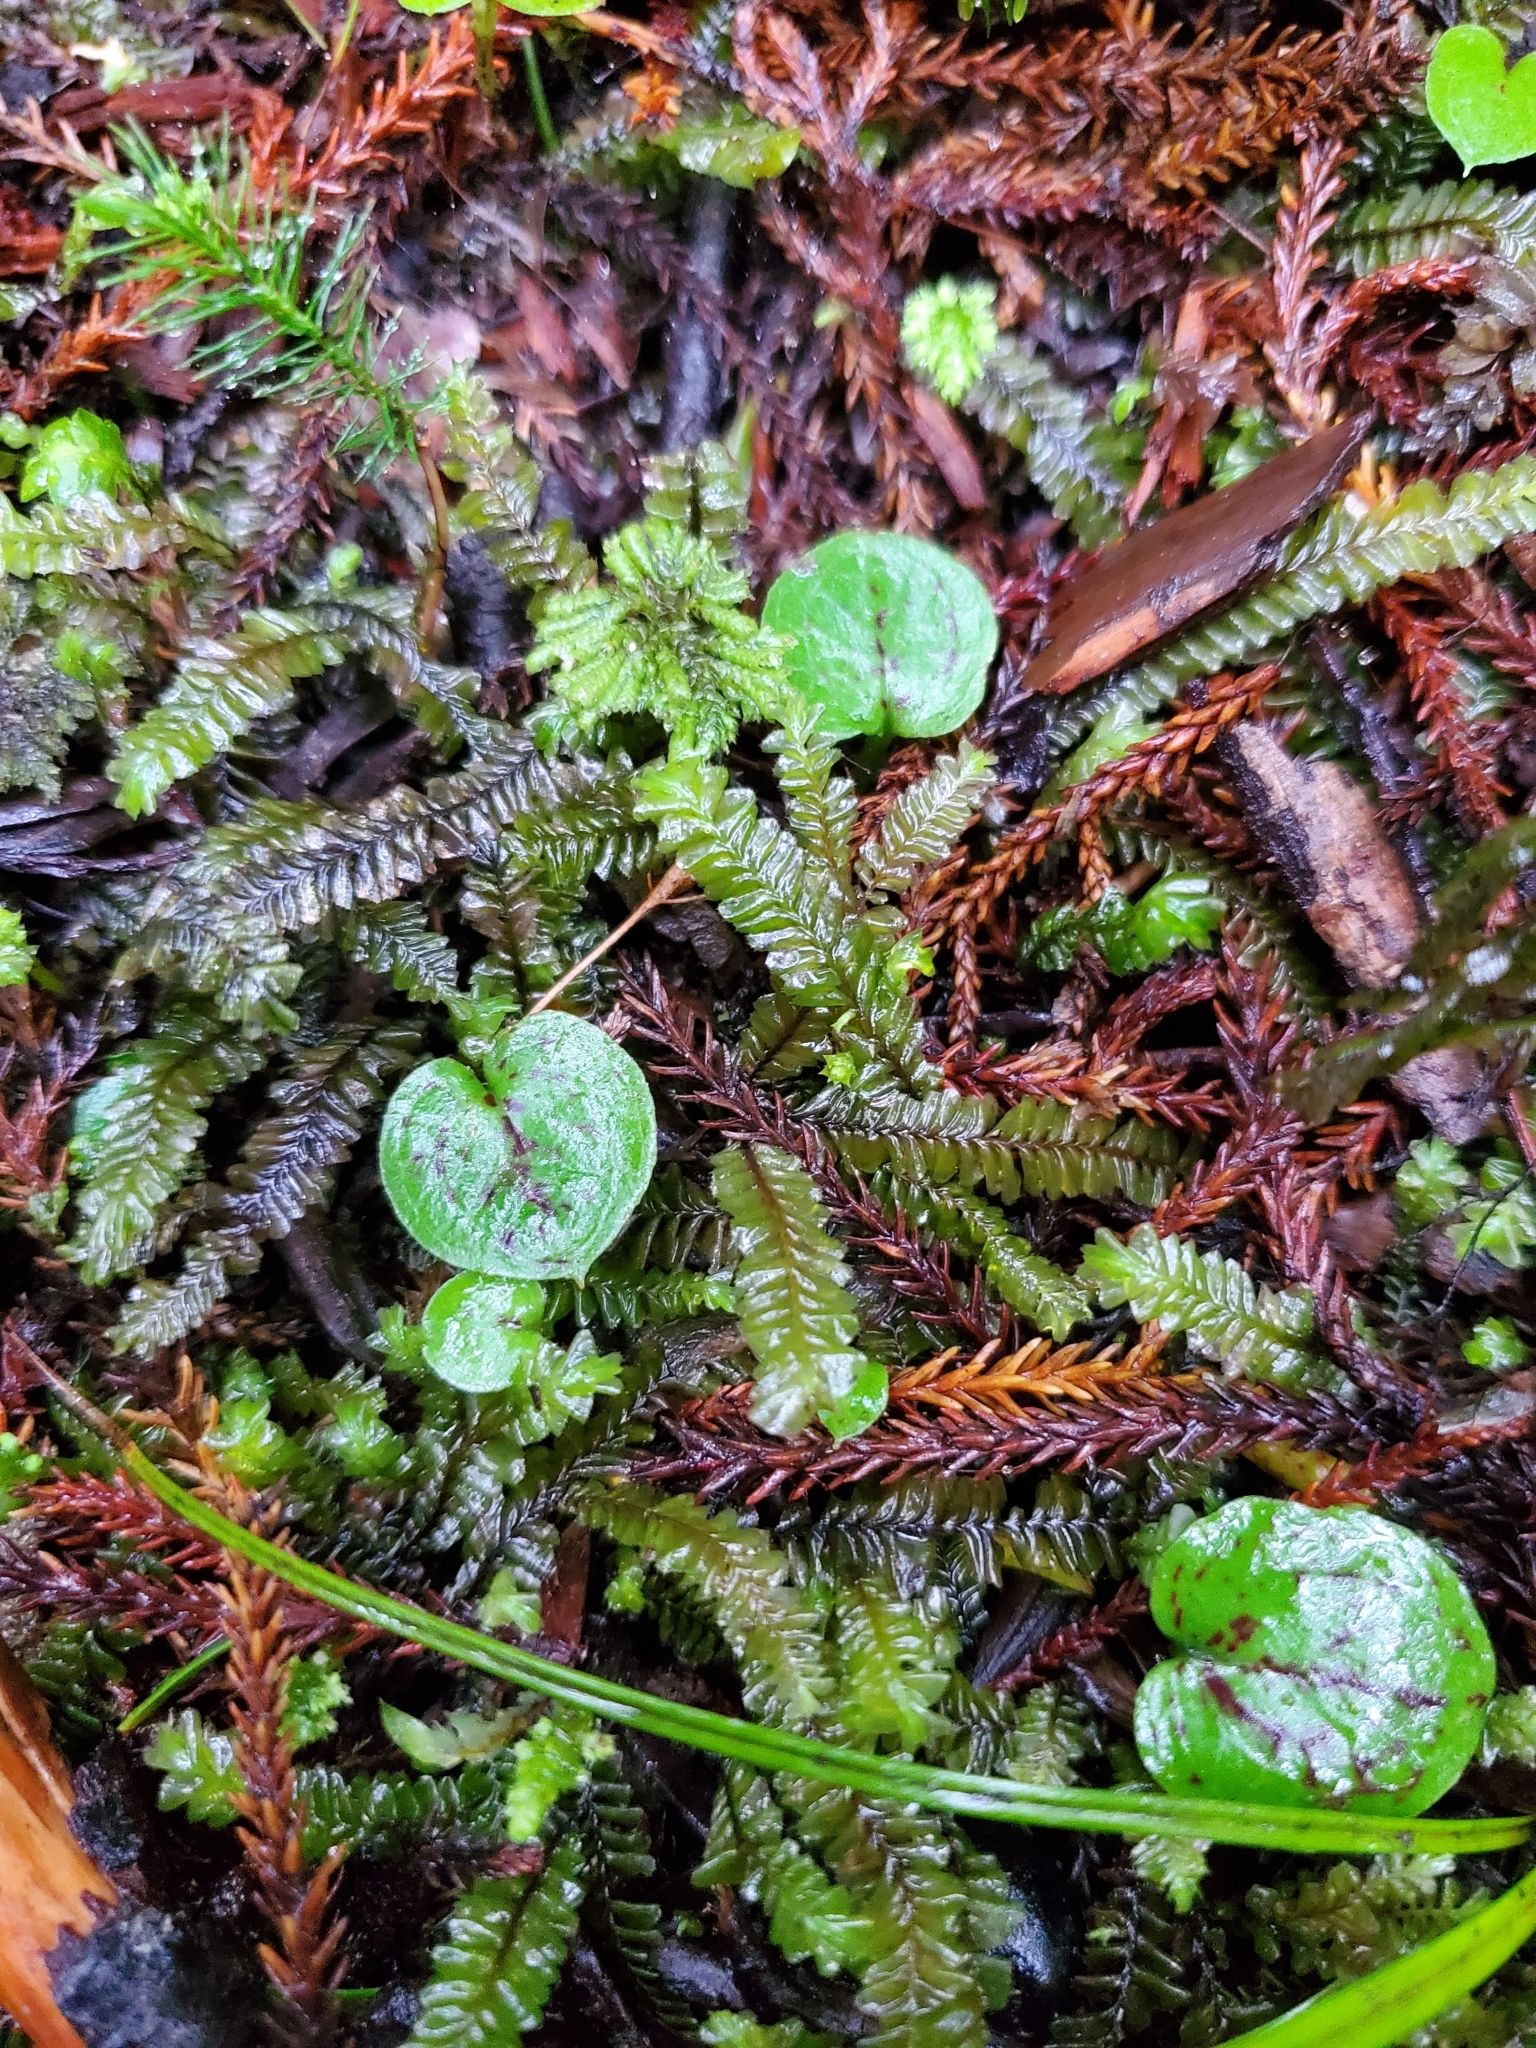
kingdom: Plantae
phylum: Tracheophyta
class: Liliopsida
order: Asparagales
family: Orchidaceae
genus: Corybas
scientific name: Corybas oblongus
